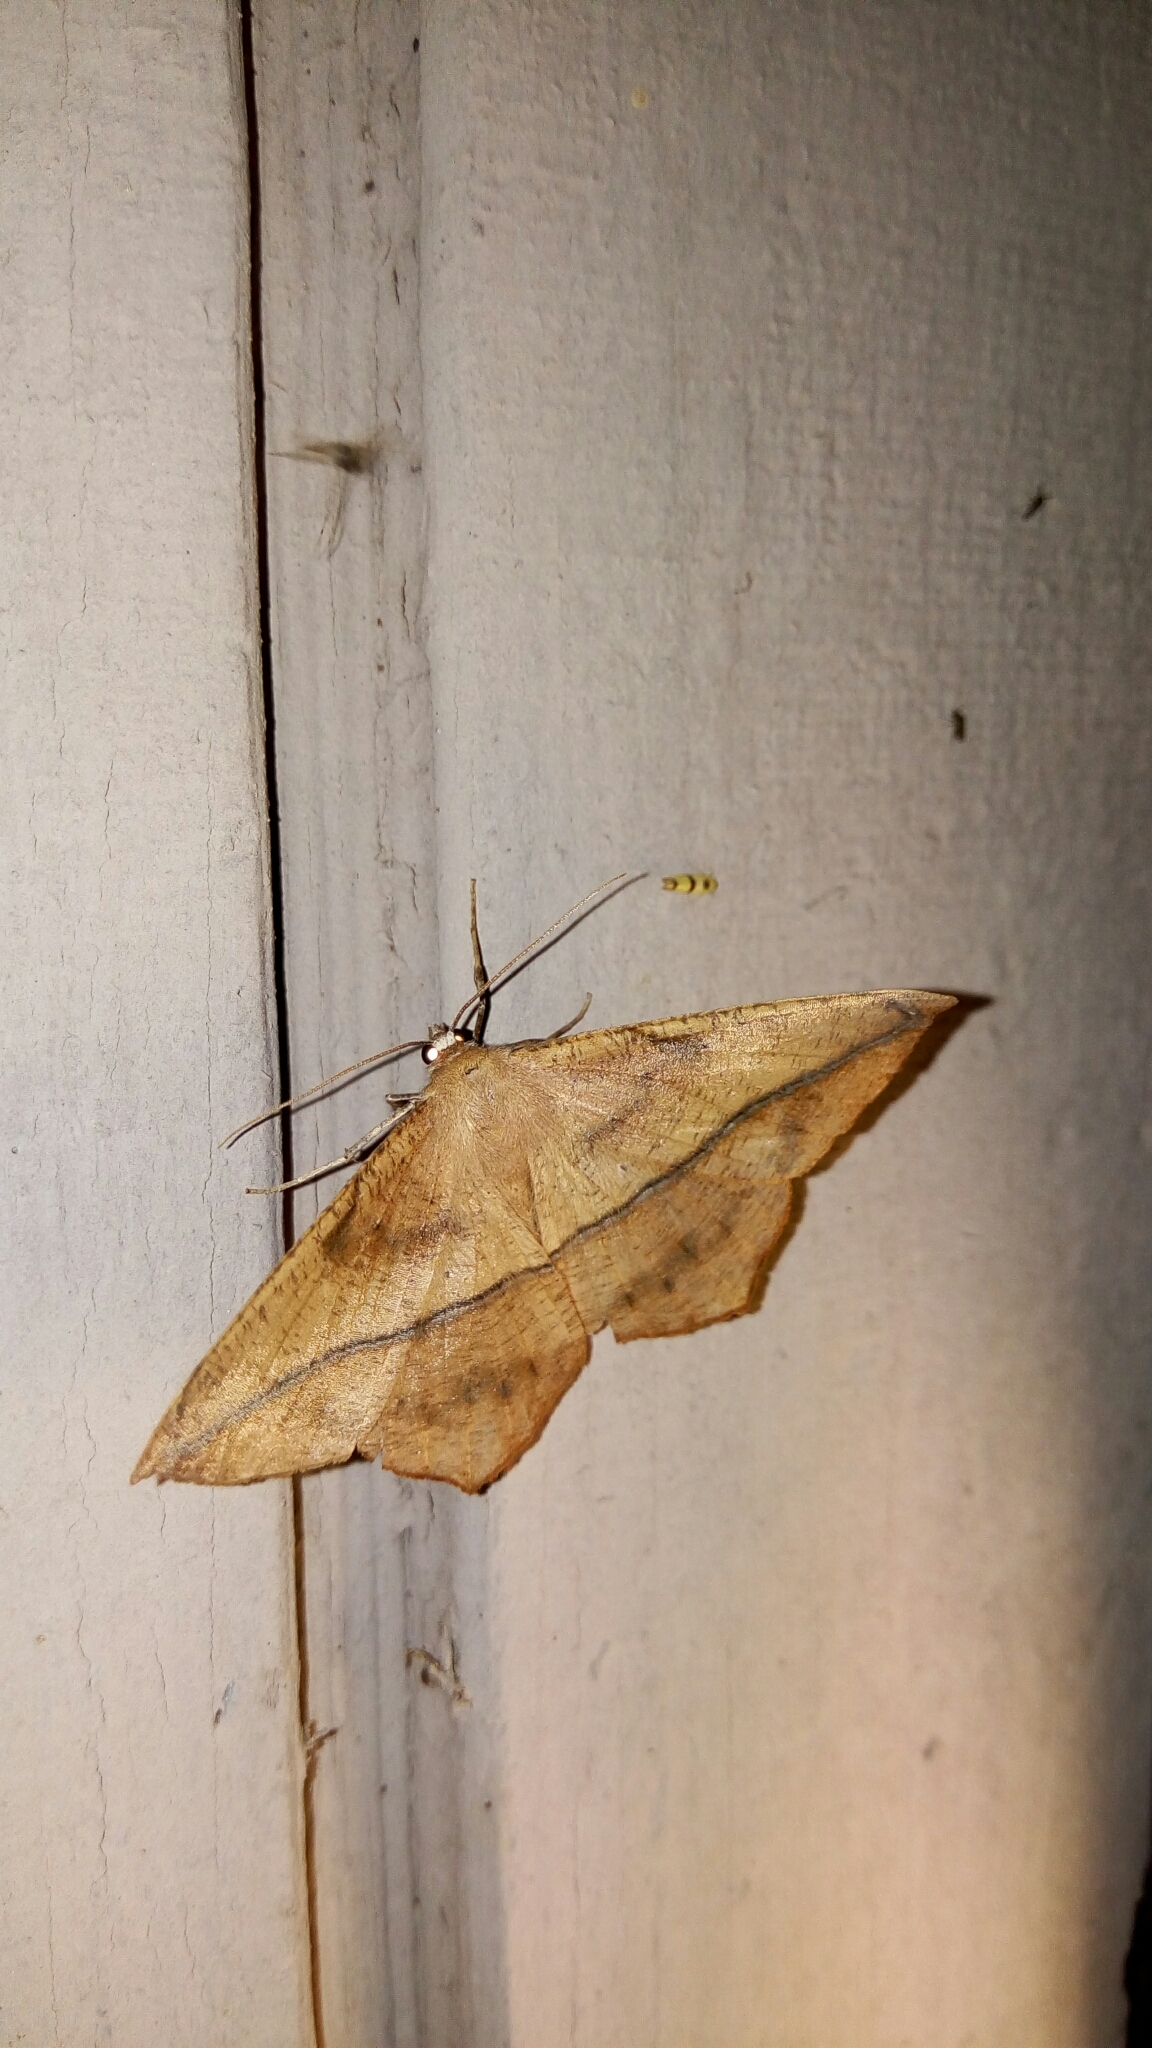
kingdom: Animalia
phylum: Arthropoda
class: Insecta
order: Lepidoptera
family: Geometridae
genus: Prochoerodes
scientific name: Prochoerodes lineola
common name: Large maple spanworm
